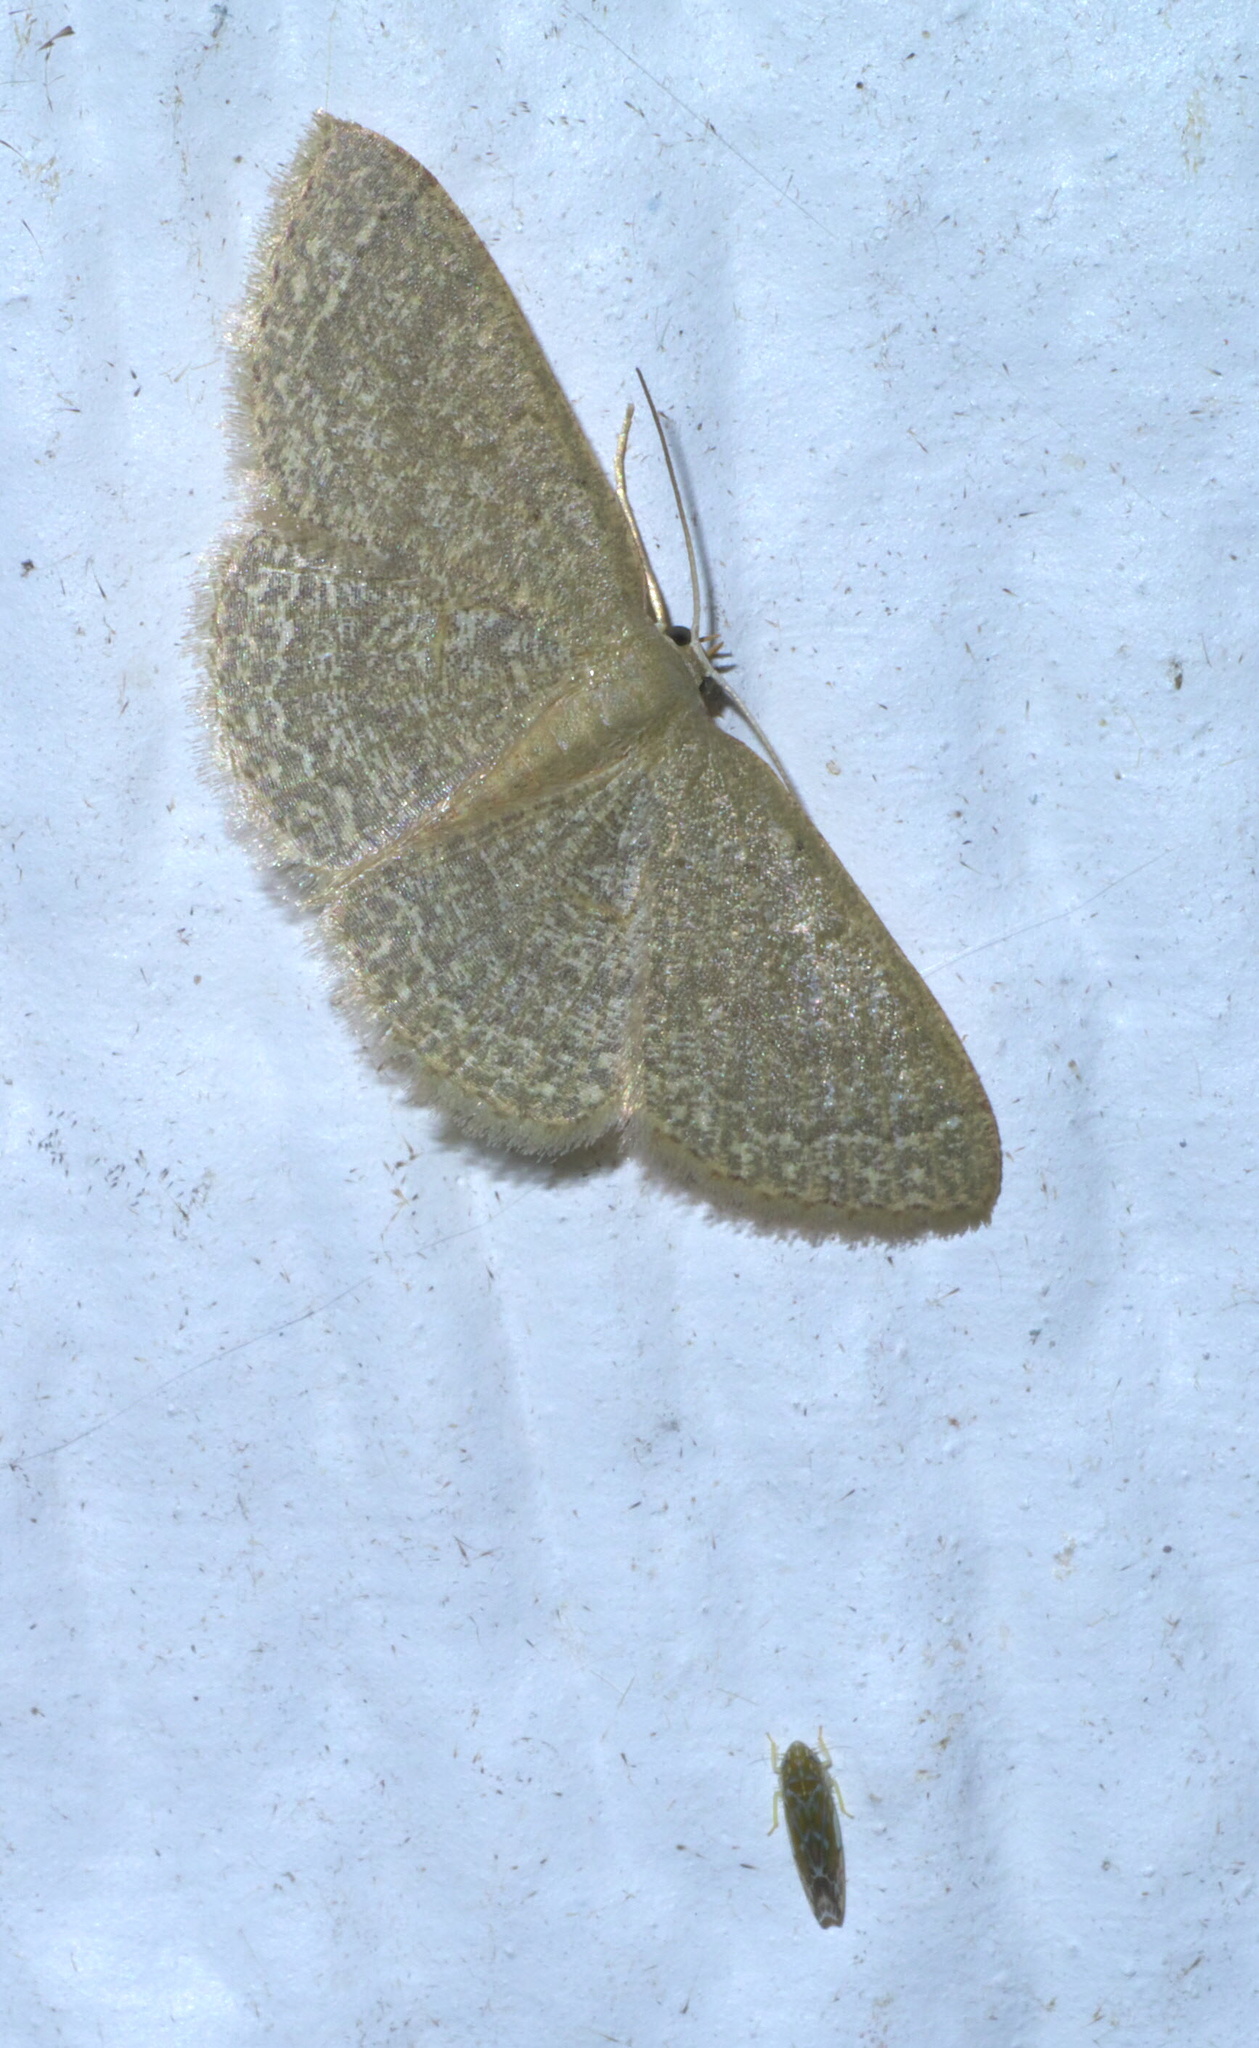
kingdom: Animalia
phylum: Arthropoda
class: Insecta
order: Lepidoptera
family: Geometridae
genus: Pleuroprucha
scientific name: Pleuroprucha insulsaria
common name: Common tan wave
